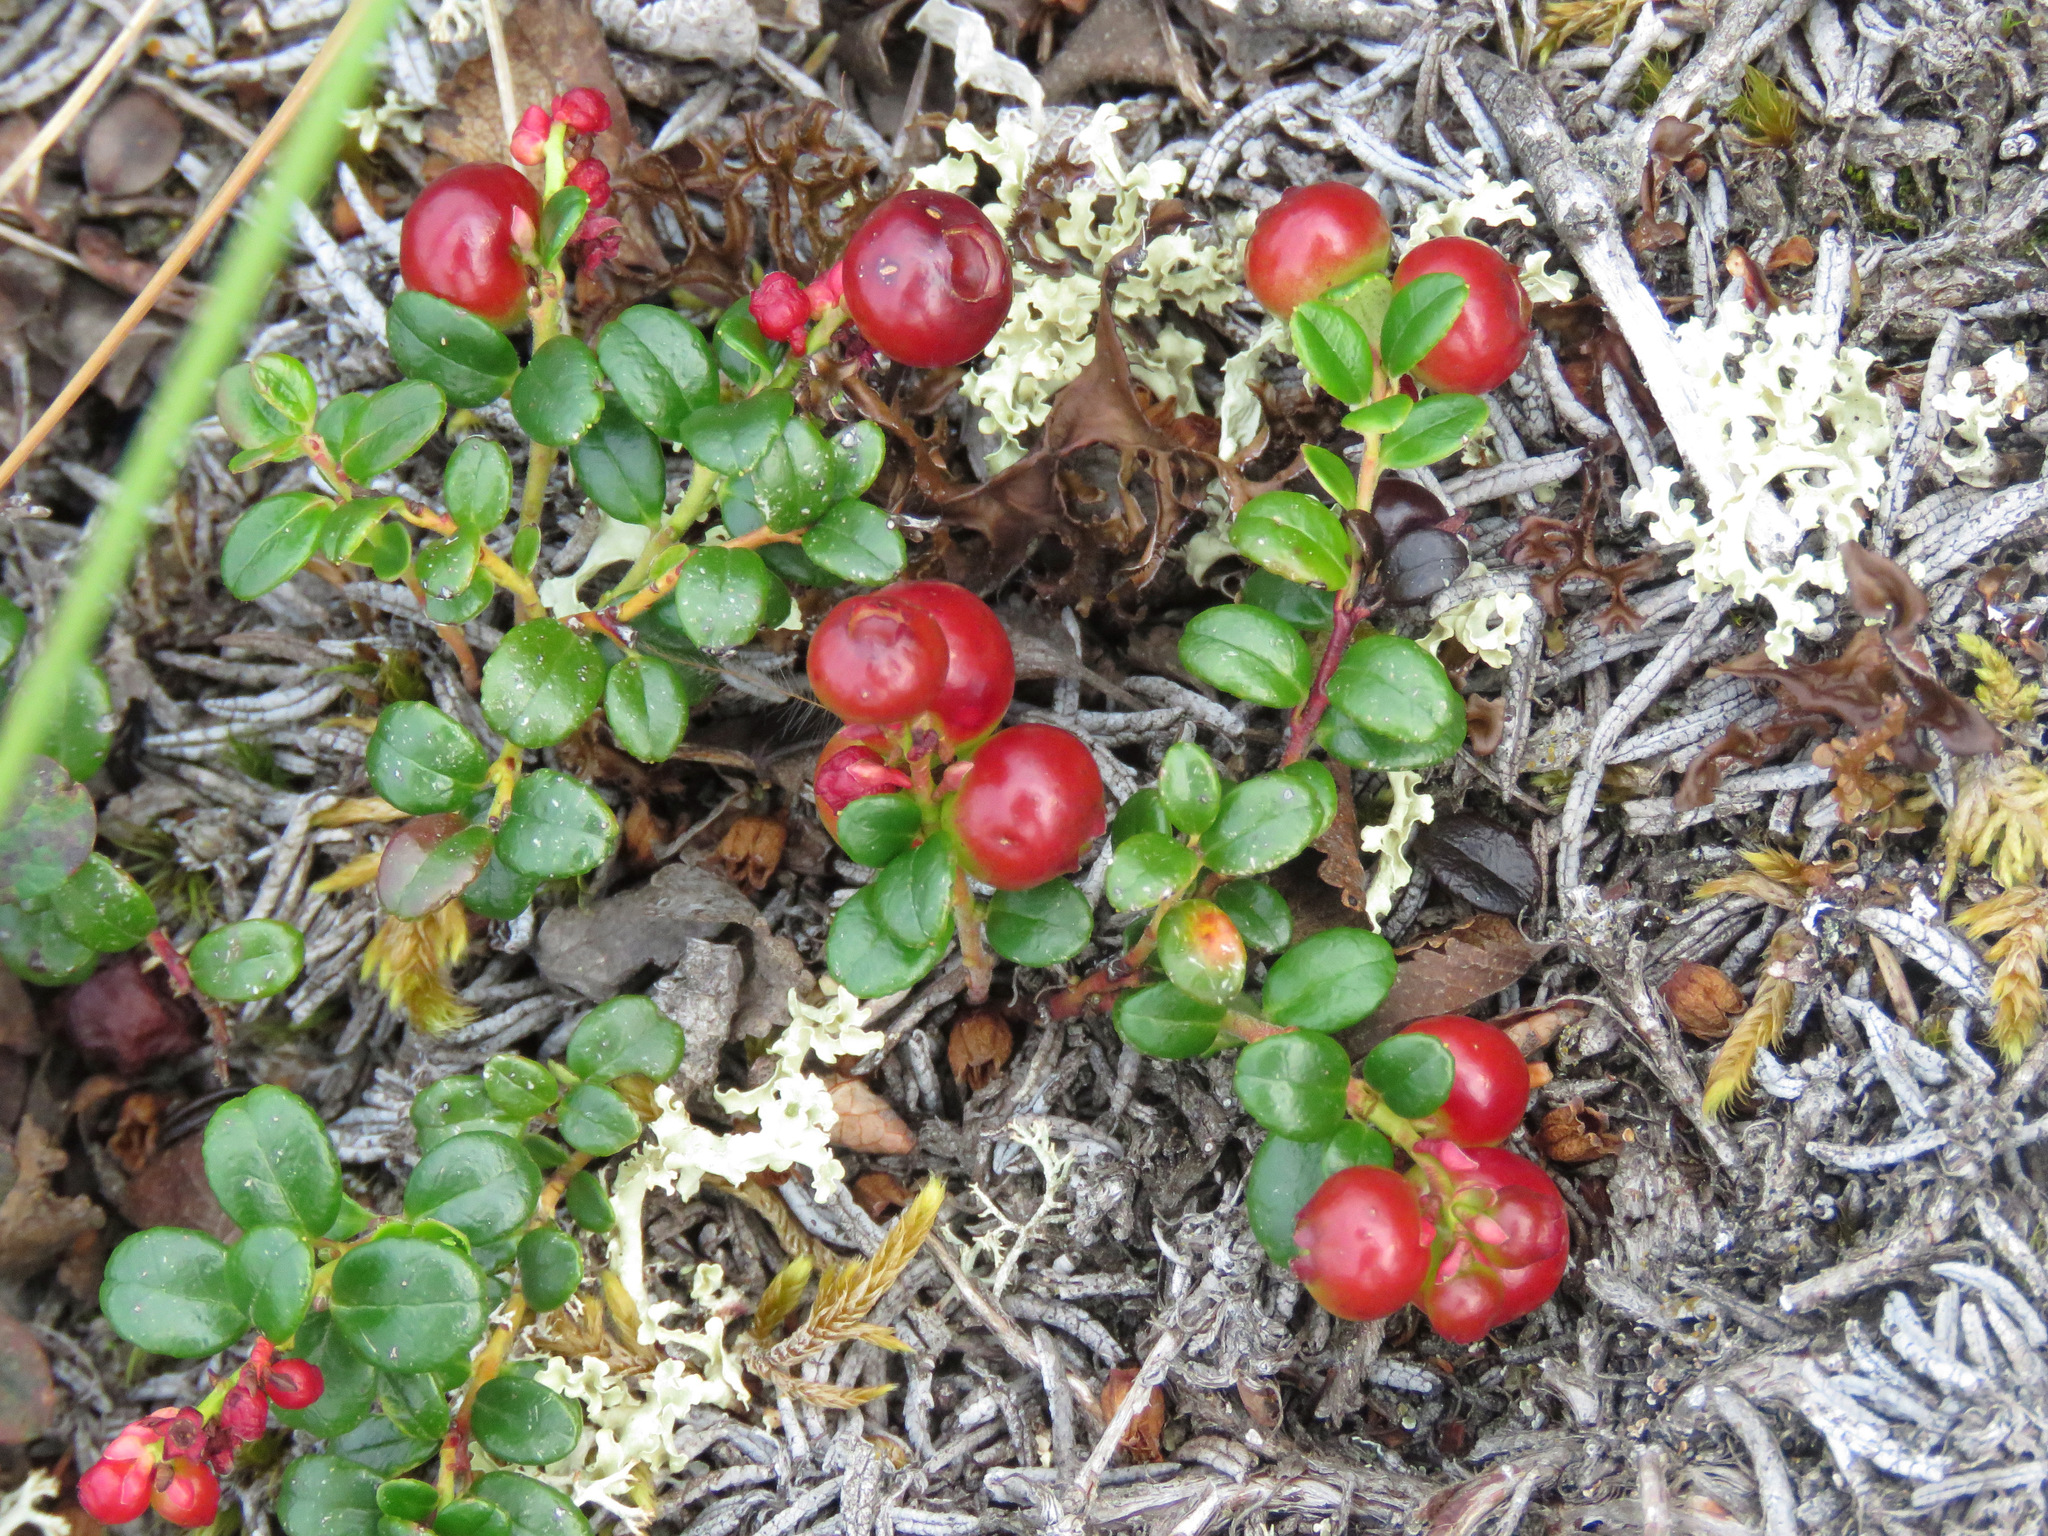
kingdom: Plantae
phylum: Tracheophyta
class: Magnoliopsida
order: Ericales
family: Ericaceae
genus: Vaccinium
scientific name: Vaccinium vitis-idaea
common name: Cowberry
